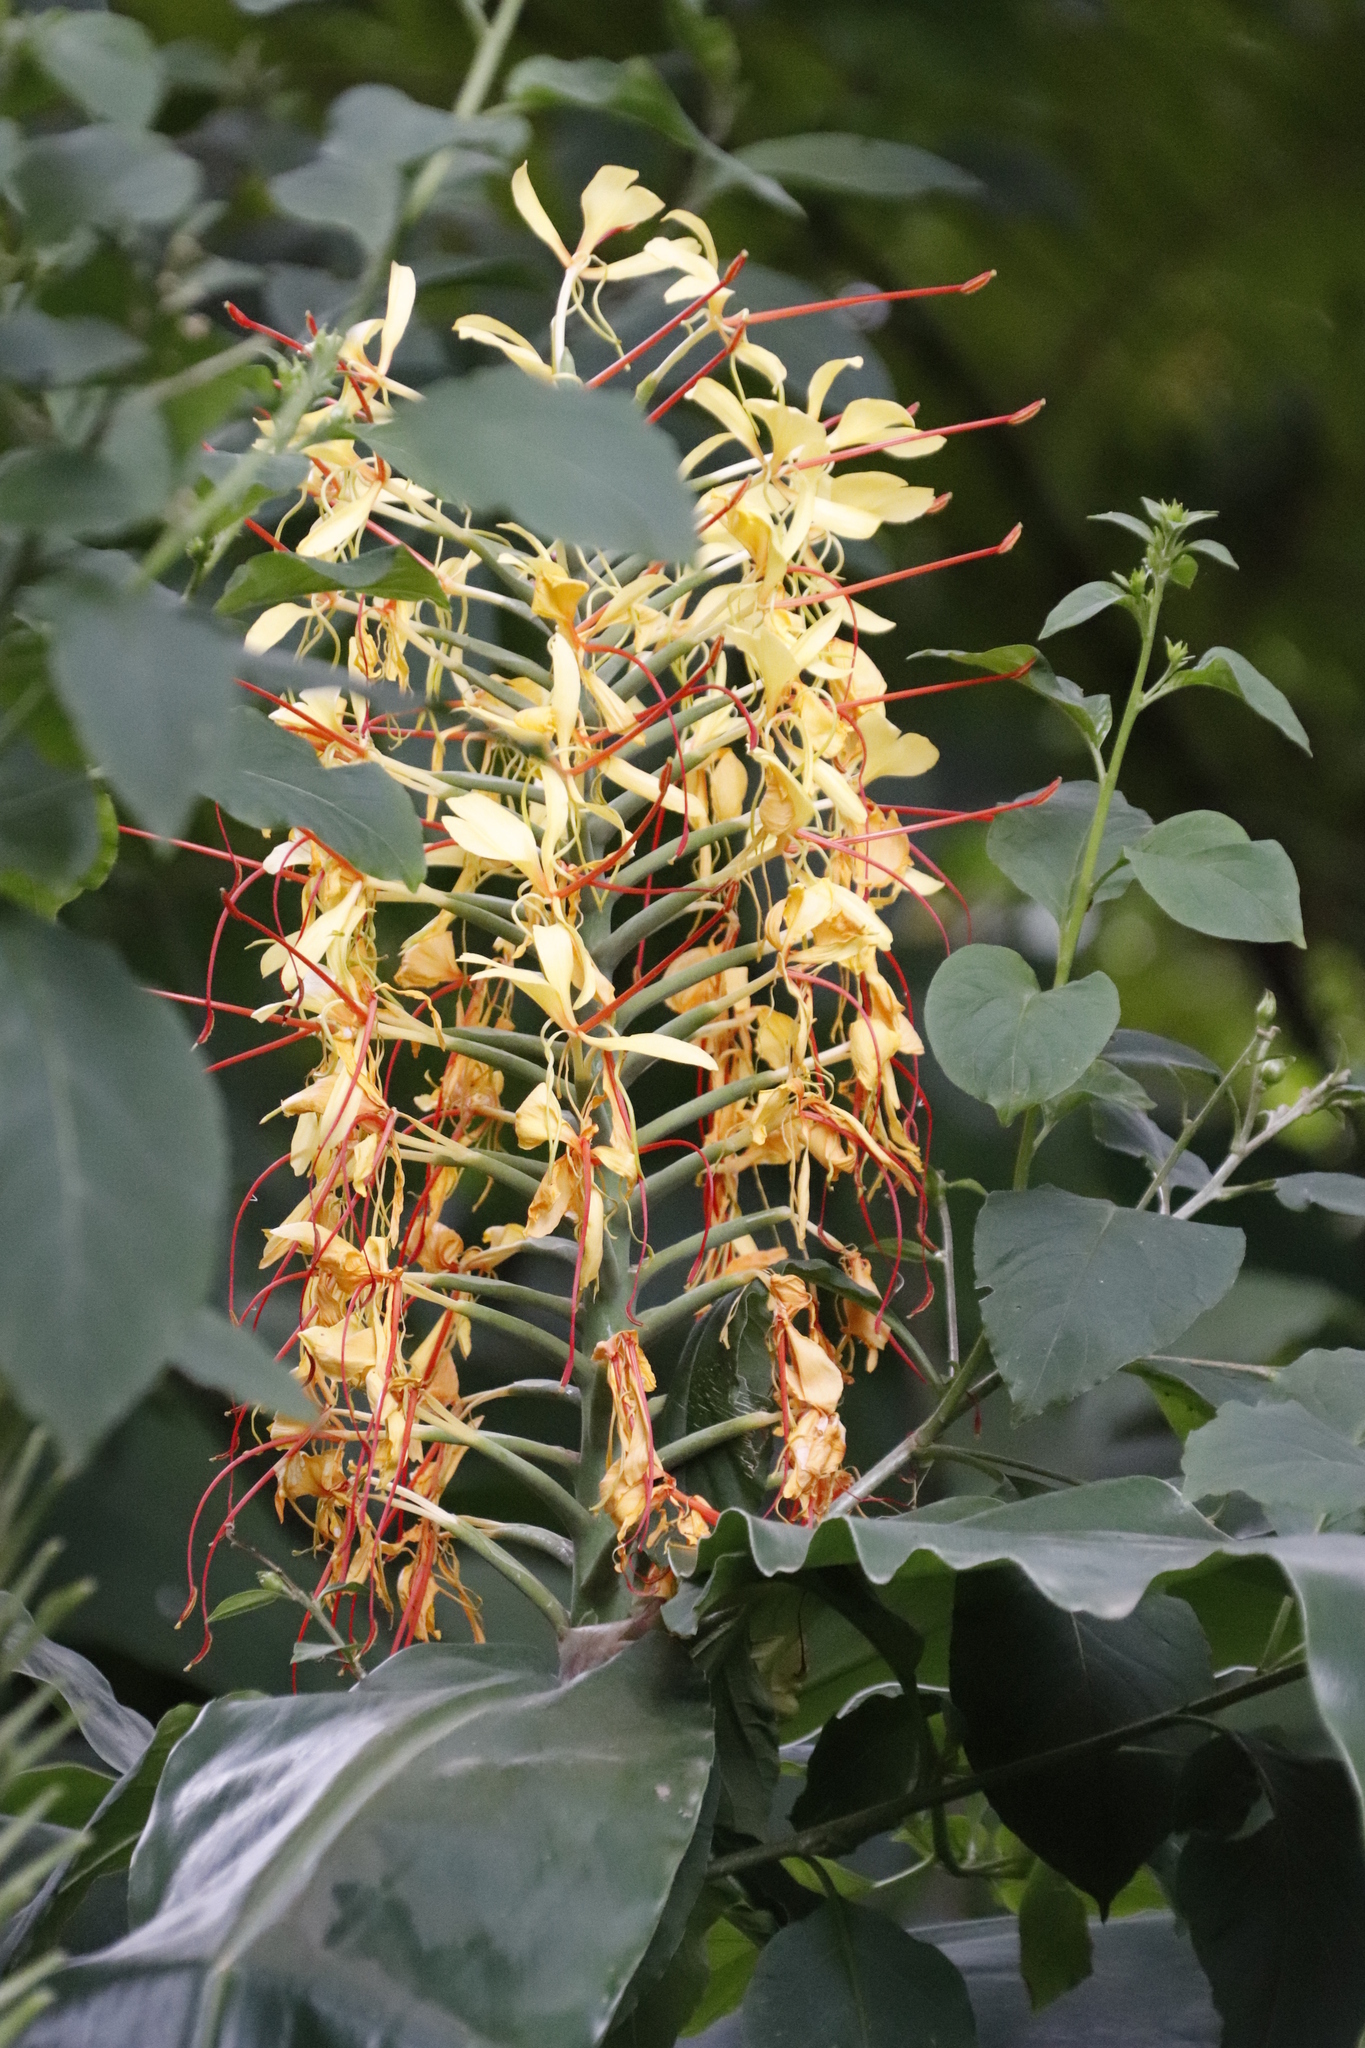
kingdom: Plantae
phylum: Tracheophyta
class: Liliopsida
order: Zingiberales
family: Zingiberaceae
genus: Hedychium
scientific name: Hedychium gardnerianum
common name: Himalayan ginger
